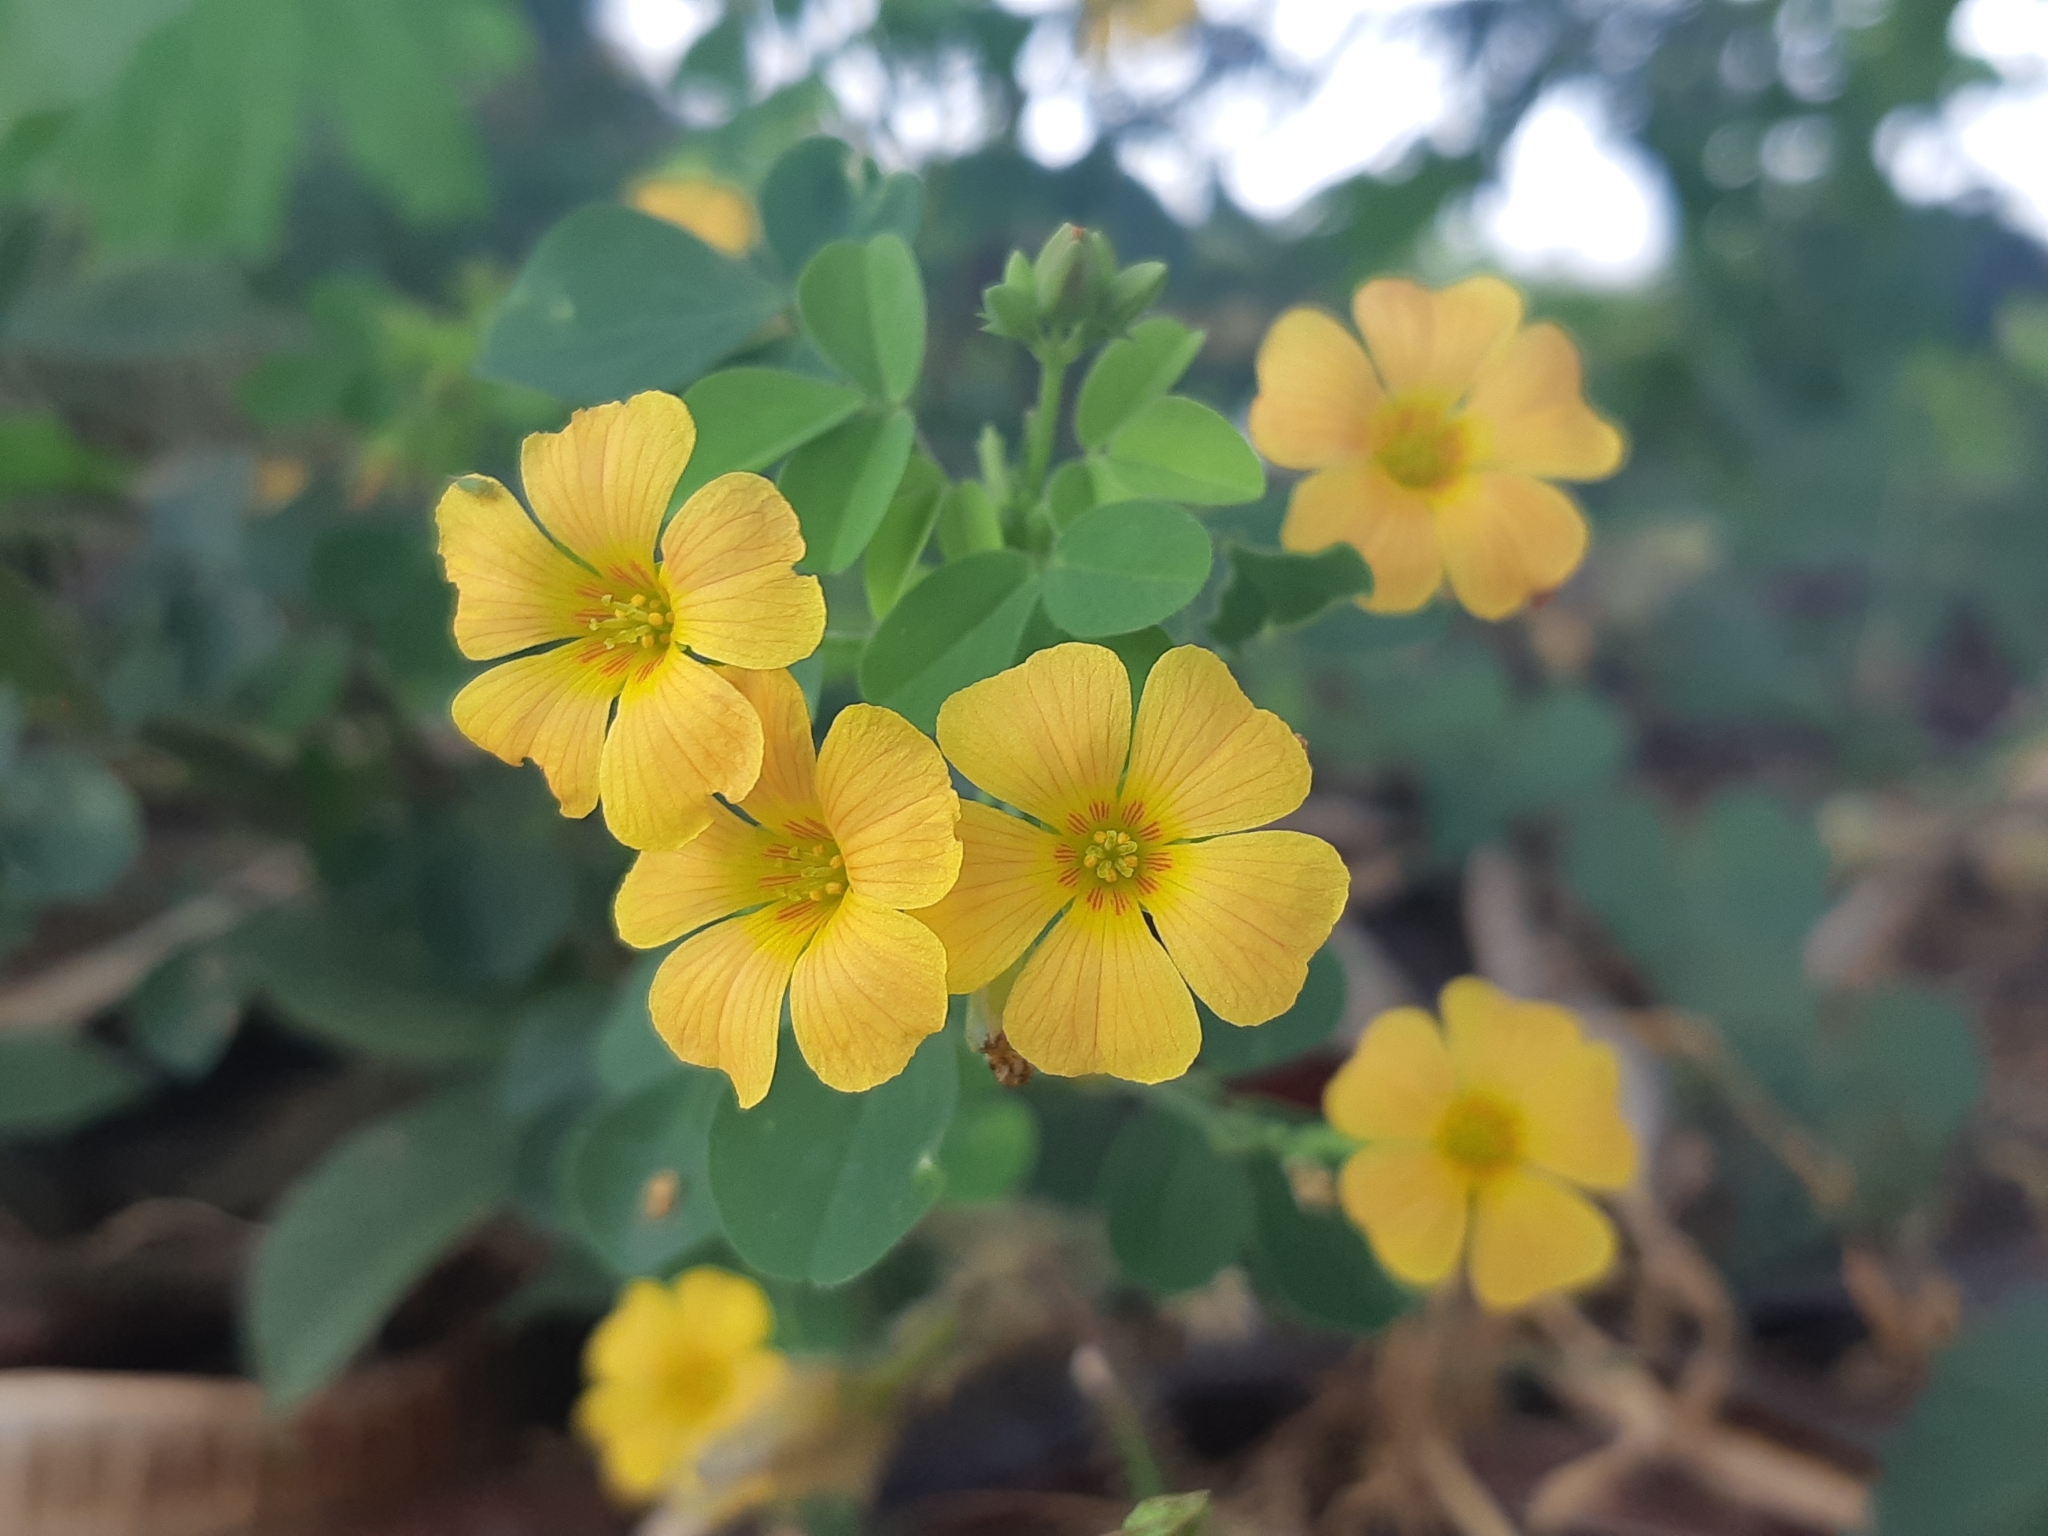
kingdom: Plantae
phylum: Tracheophyta
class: Magnoliopsida
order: Oxalidales
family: Oxalidaceae
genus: Oxalis
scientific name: Oxalis dombeyi
